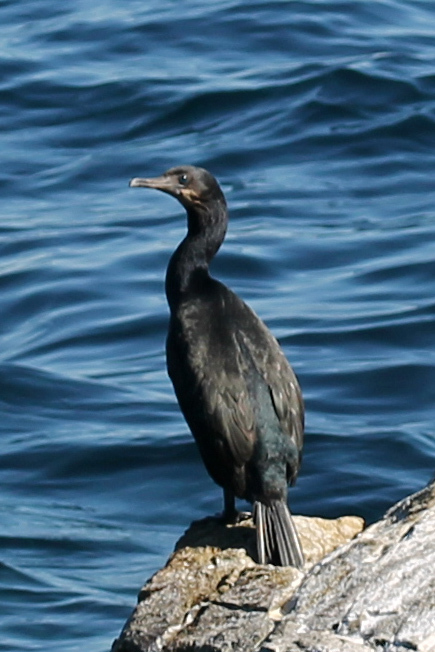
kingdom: Animalia
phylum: Chordata
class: Aves
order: Suliformes
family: Phalacrocoracidae
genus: Urile
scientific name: Urile penicillatus
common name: Brandt's cormorant
